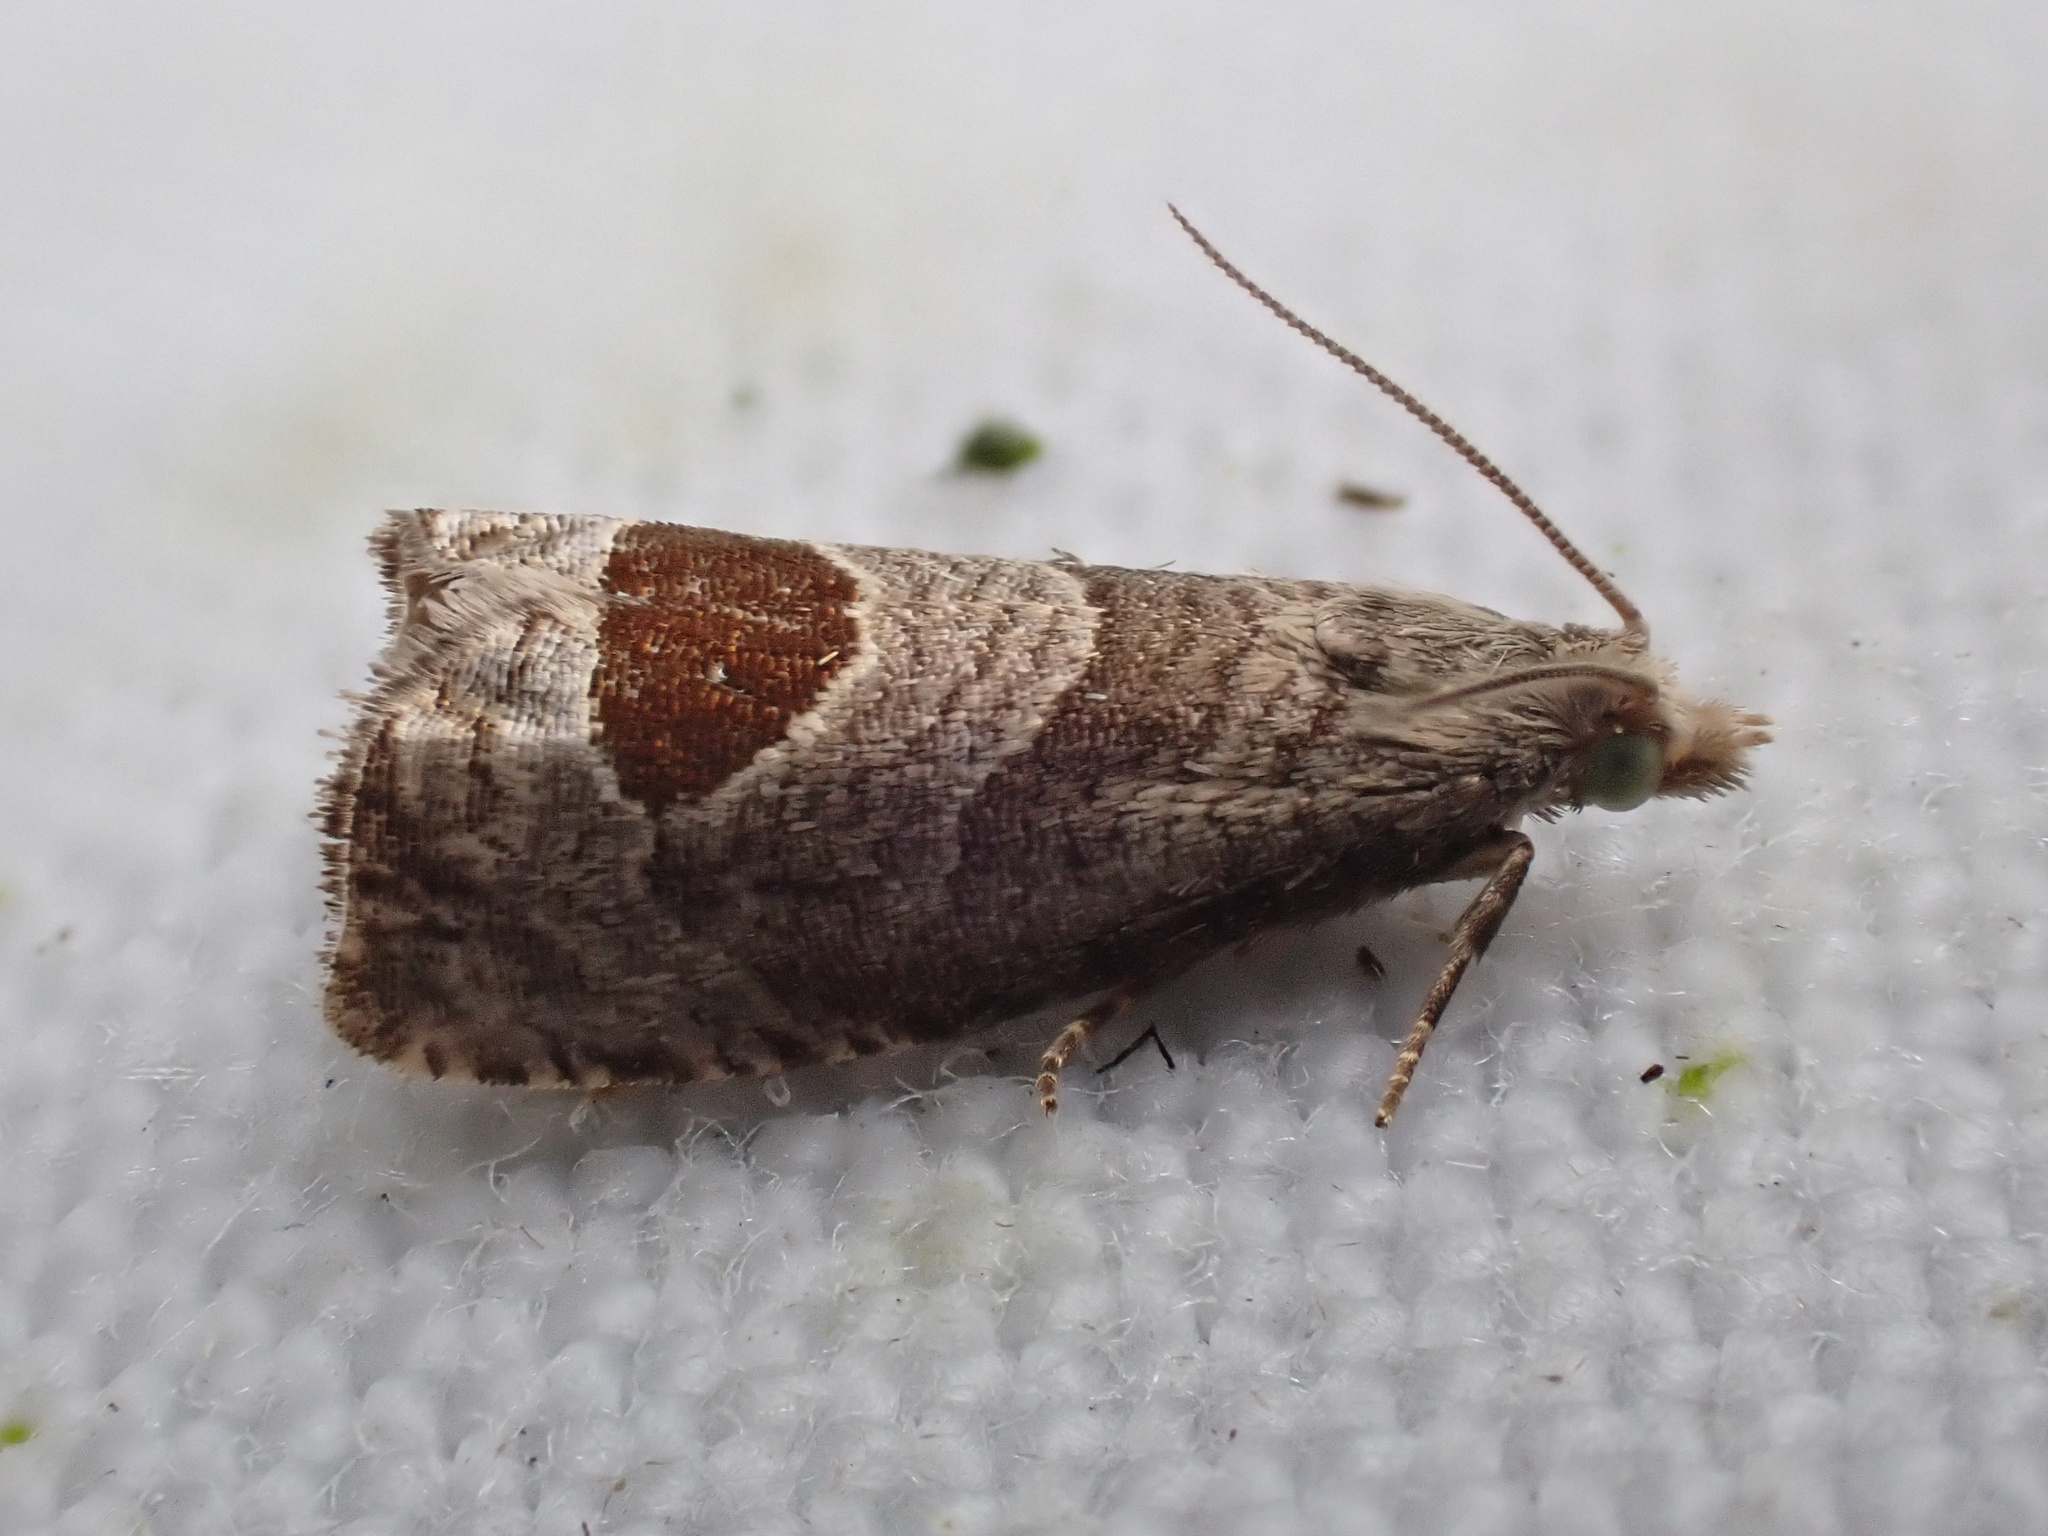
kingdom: Animalia
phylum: Arthropoda
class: Insecta
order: Lepidoptera
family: Tortricidae
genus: Notocelia
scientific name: Notocelia uddmanniana
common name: Bramble shoot moth
